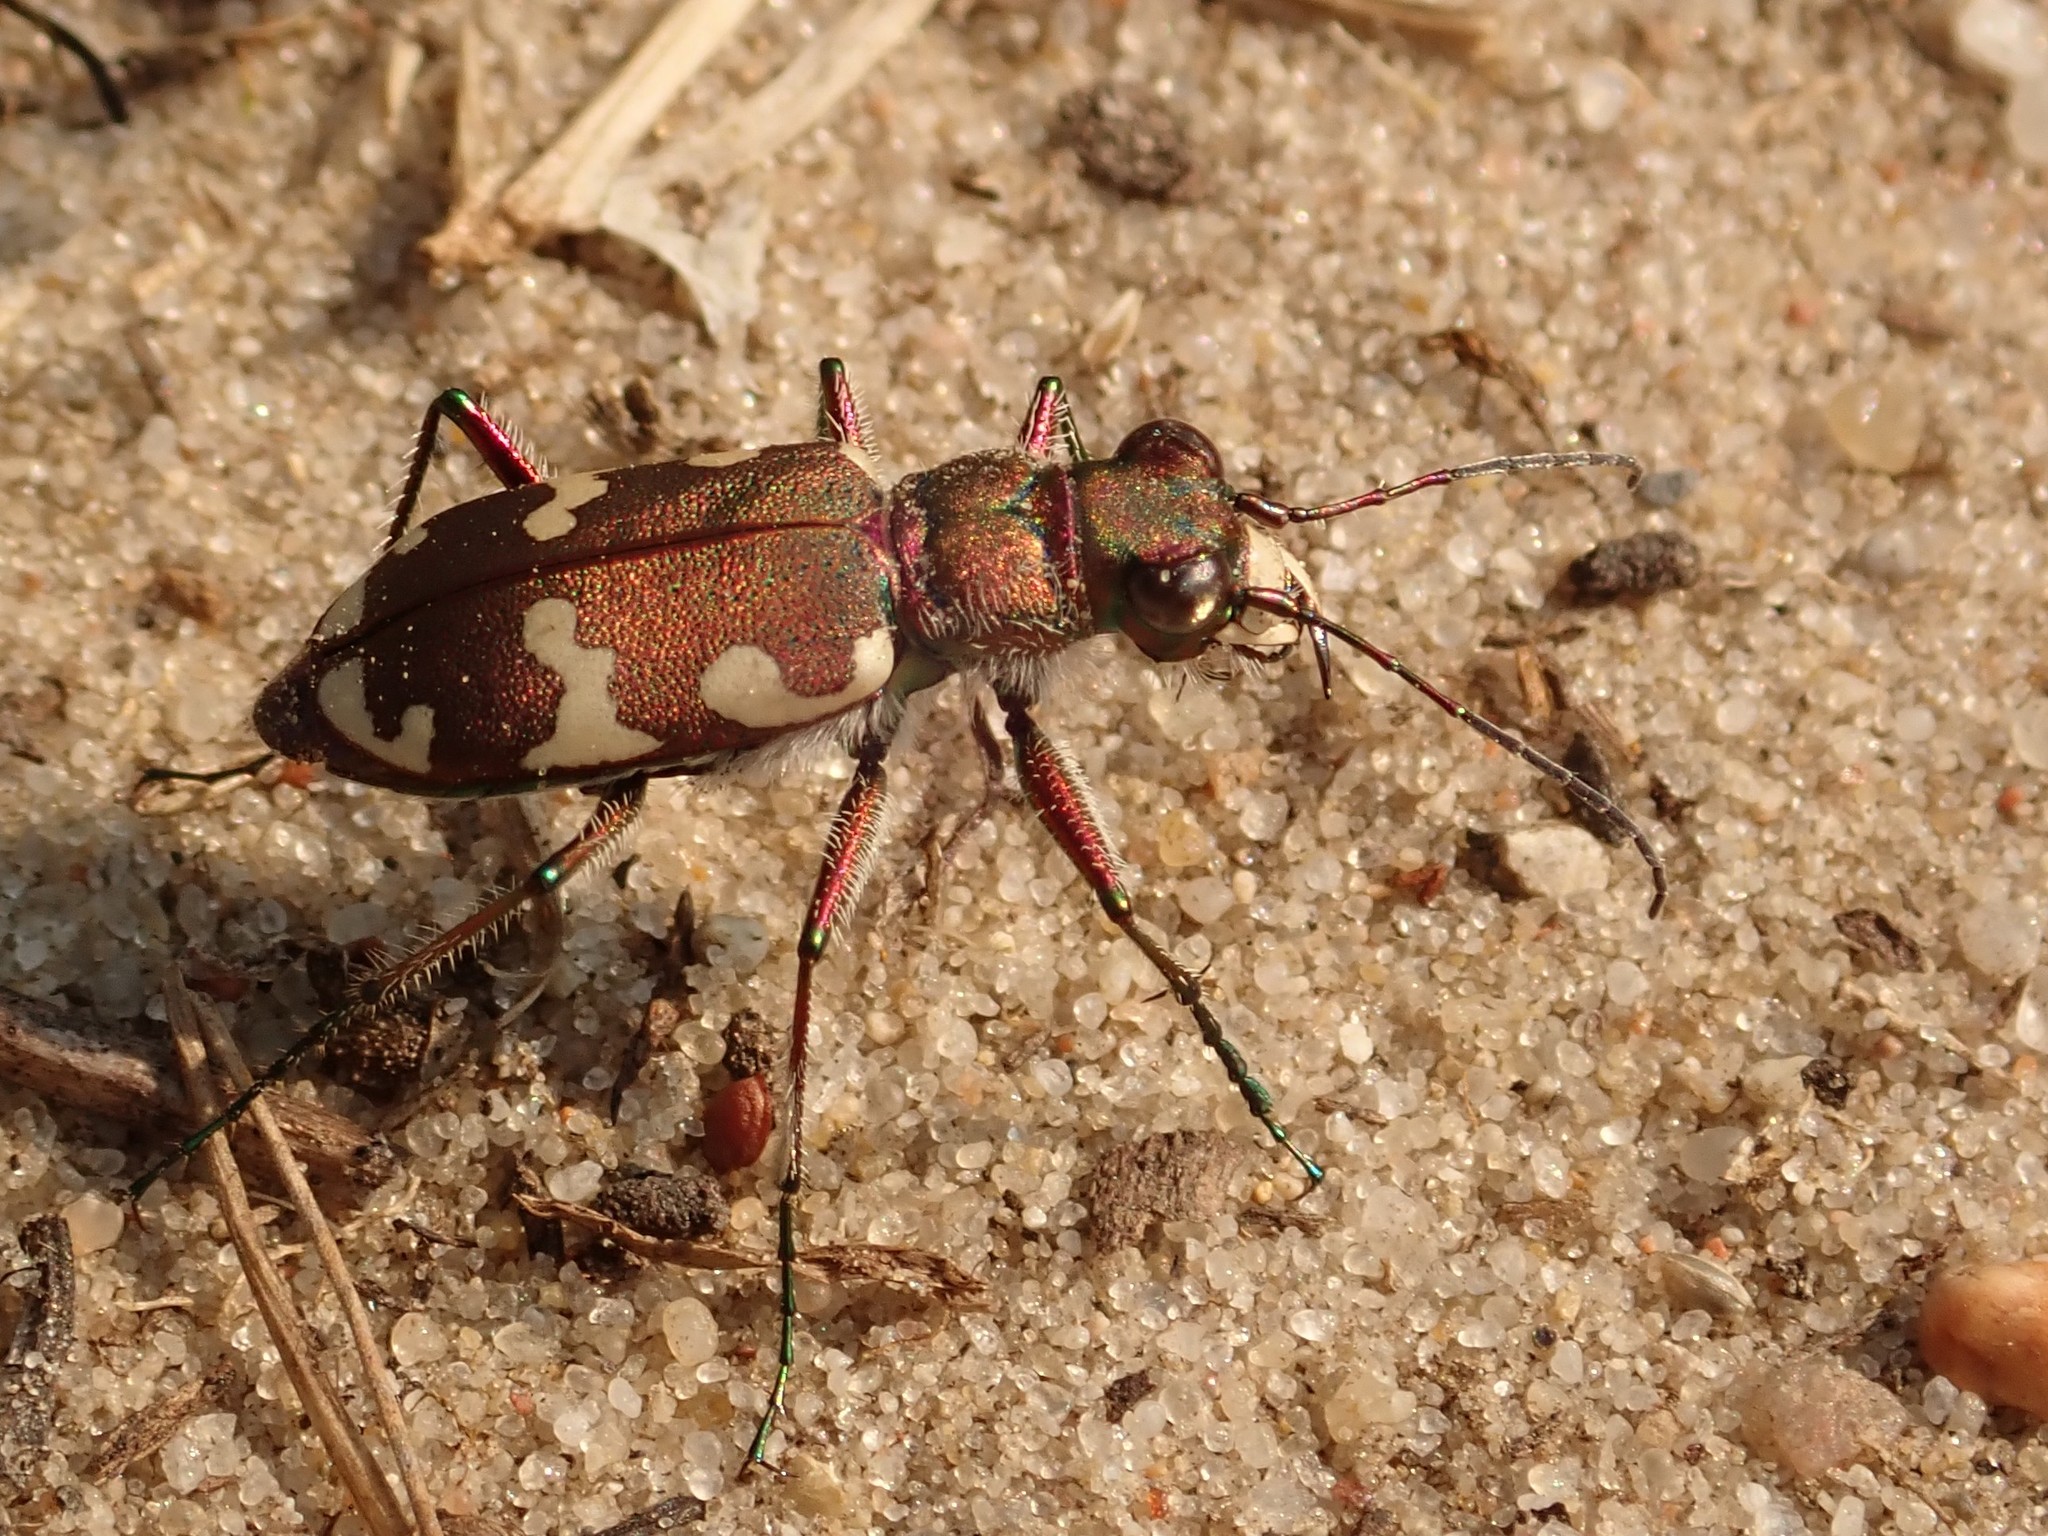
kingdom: Animalia
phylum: Arthropoda
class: Insecta
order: Coleoptera
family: Carabidae
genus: Cicindela
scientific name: Cicindela hybrida
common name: Northern dune tiger beetle
